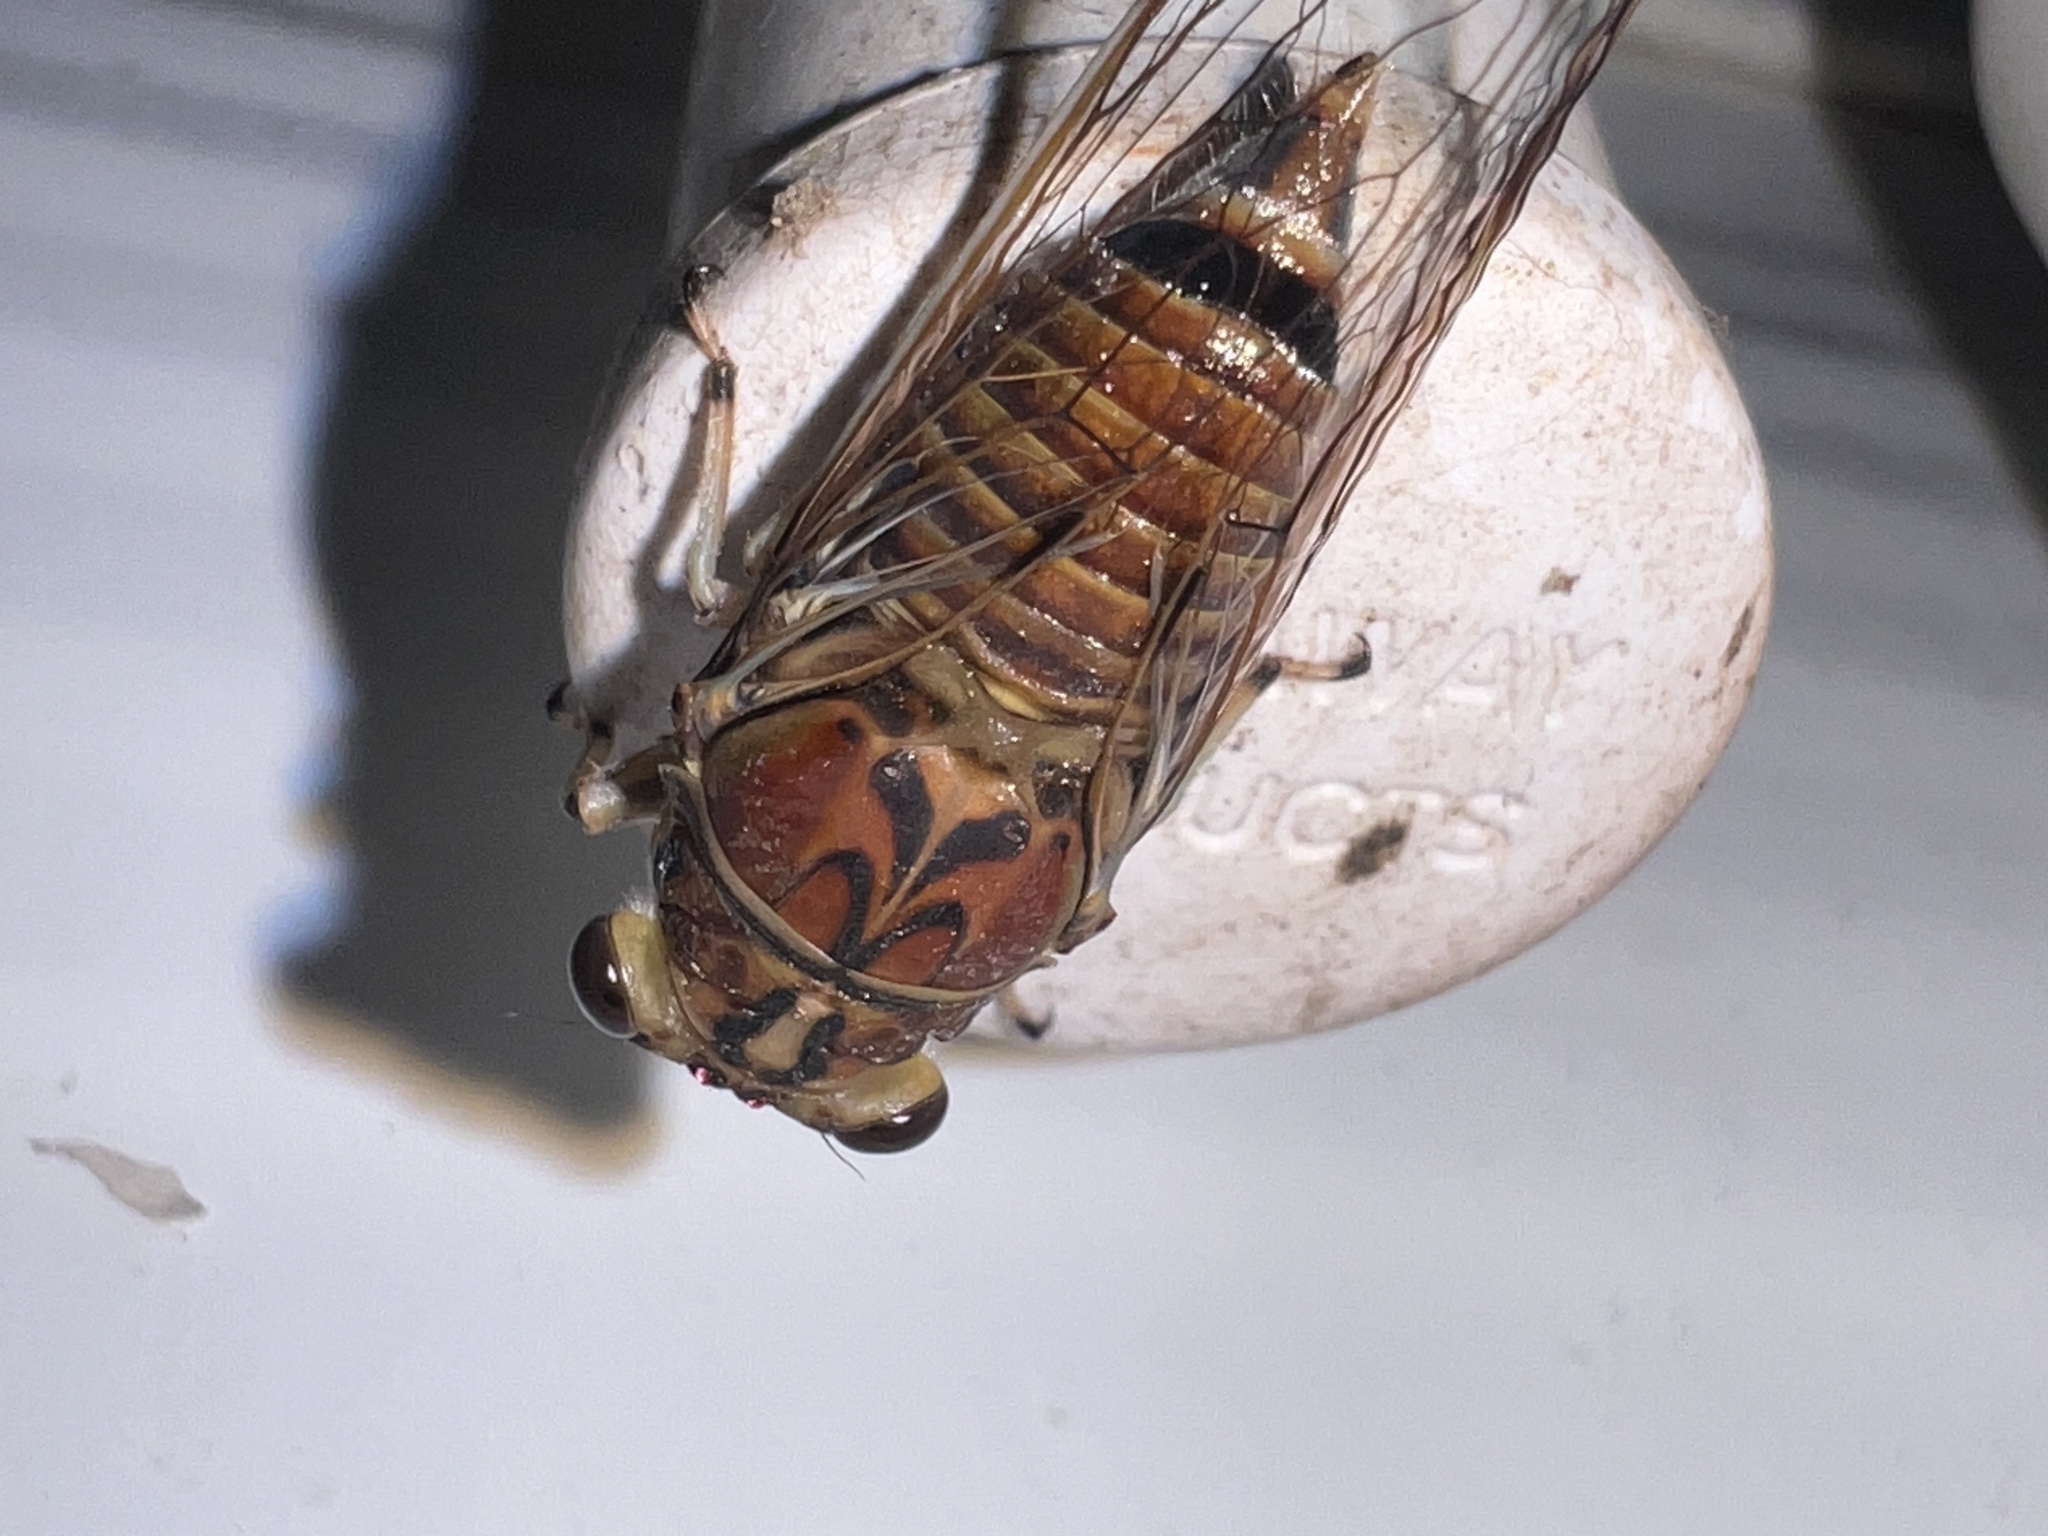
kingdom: Animalia
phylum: Arthropoda
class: Insecta
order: Hemiptera
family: Cicadidae
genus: Tamasa
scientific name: Tamasa tristigma
